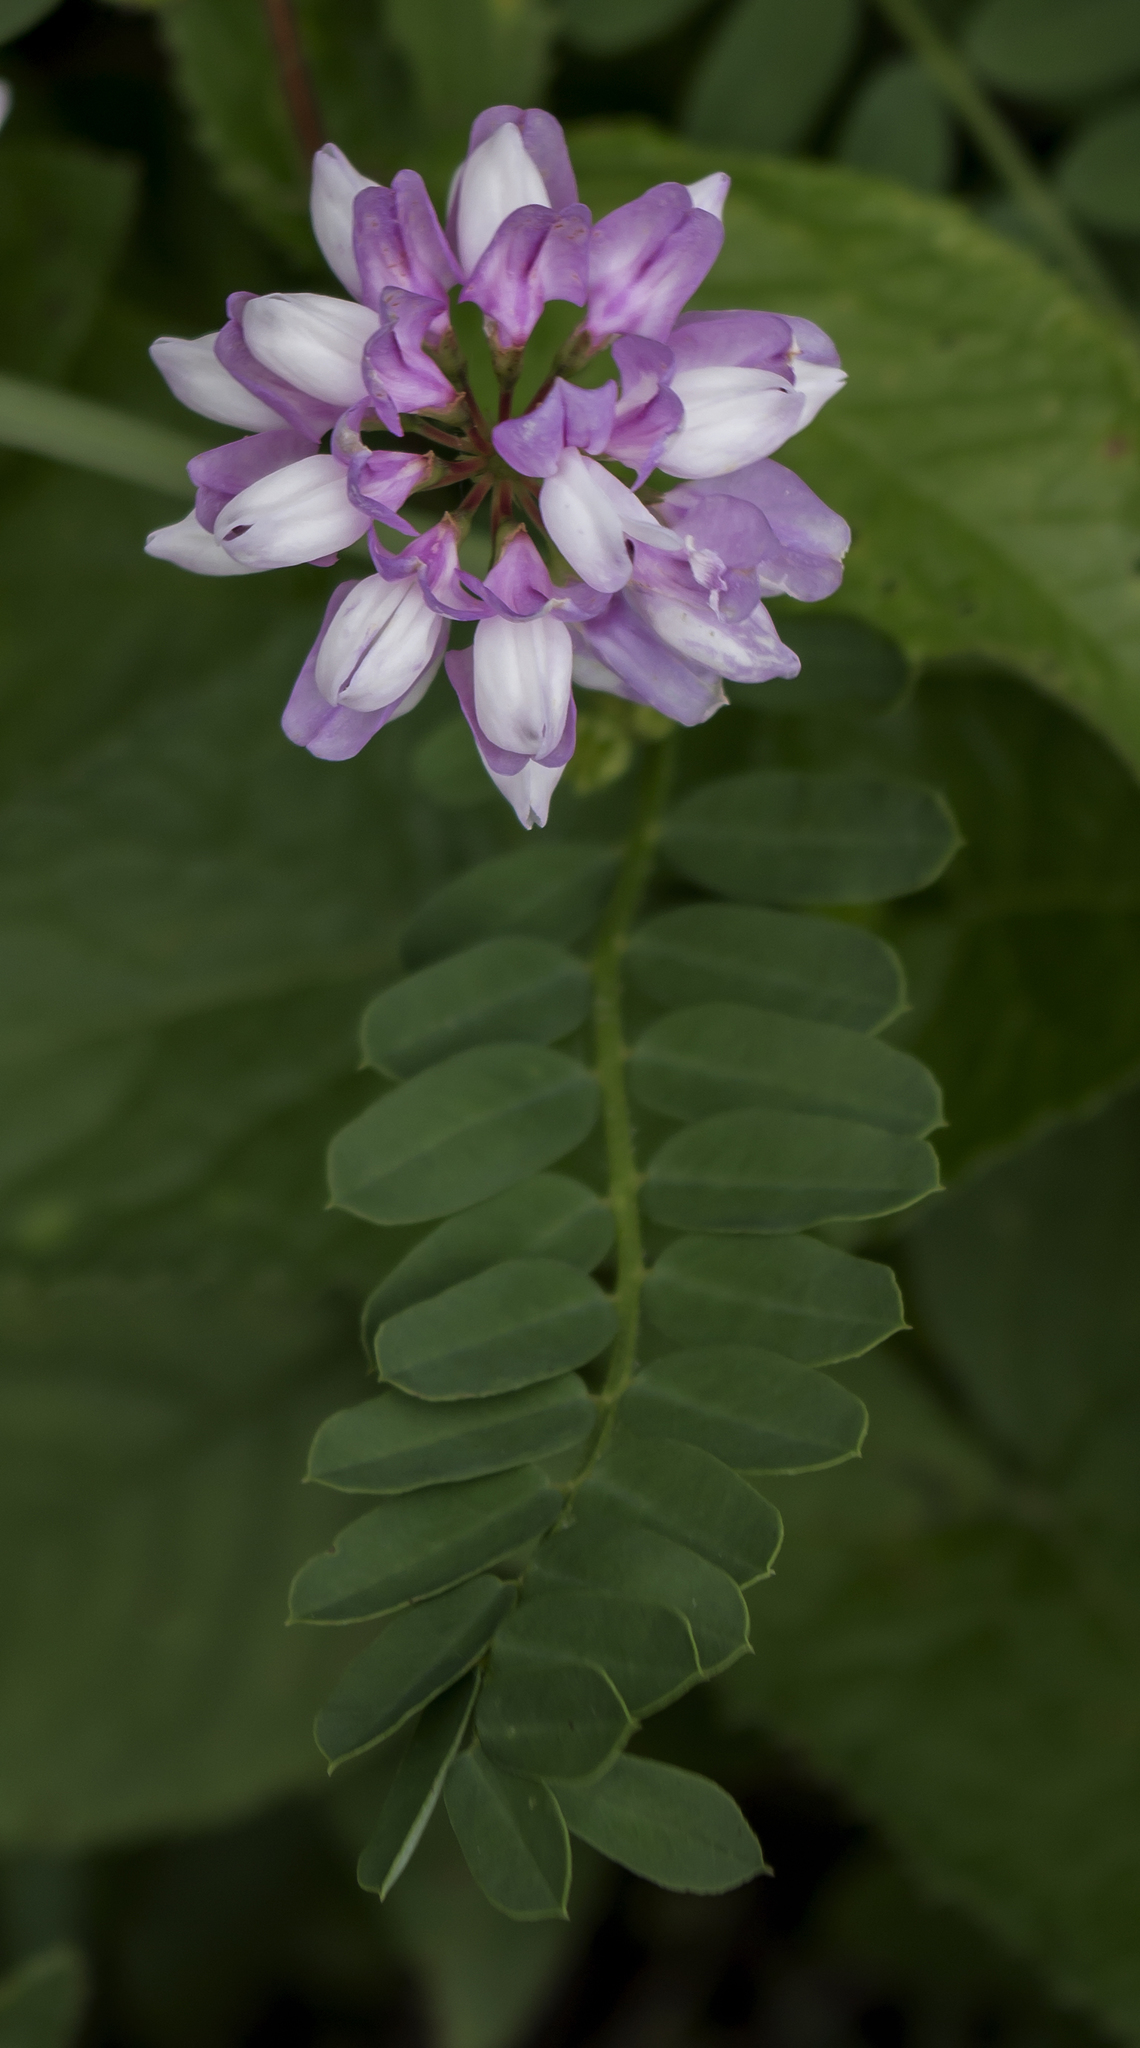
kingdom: Plantae
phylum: Tracheophyta
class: Magnoliopsida
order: Fabales
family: Fabaceae
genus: Coronilla
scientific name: Coronilla varia
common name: Crownvetch
